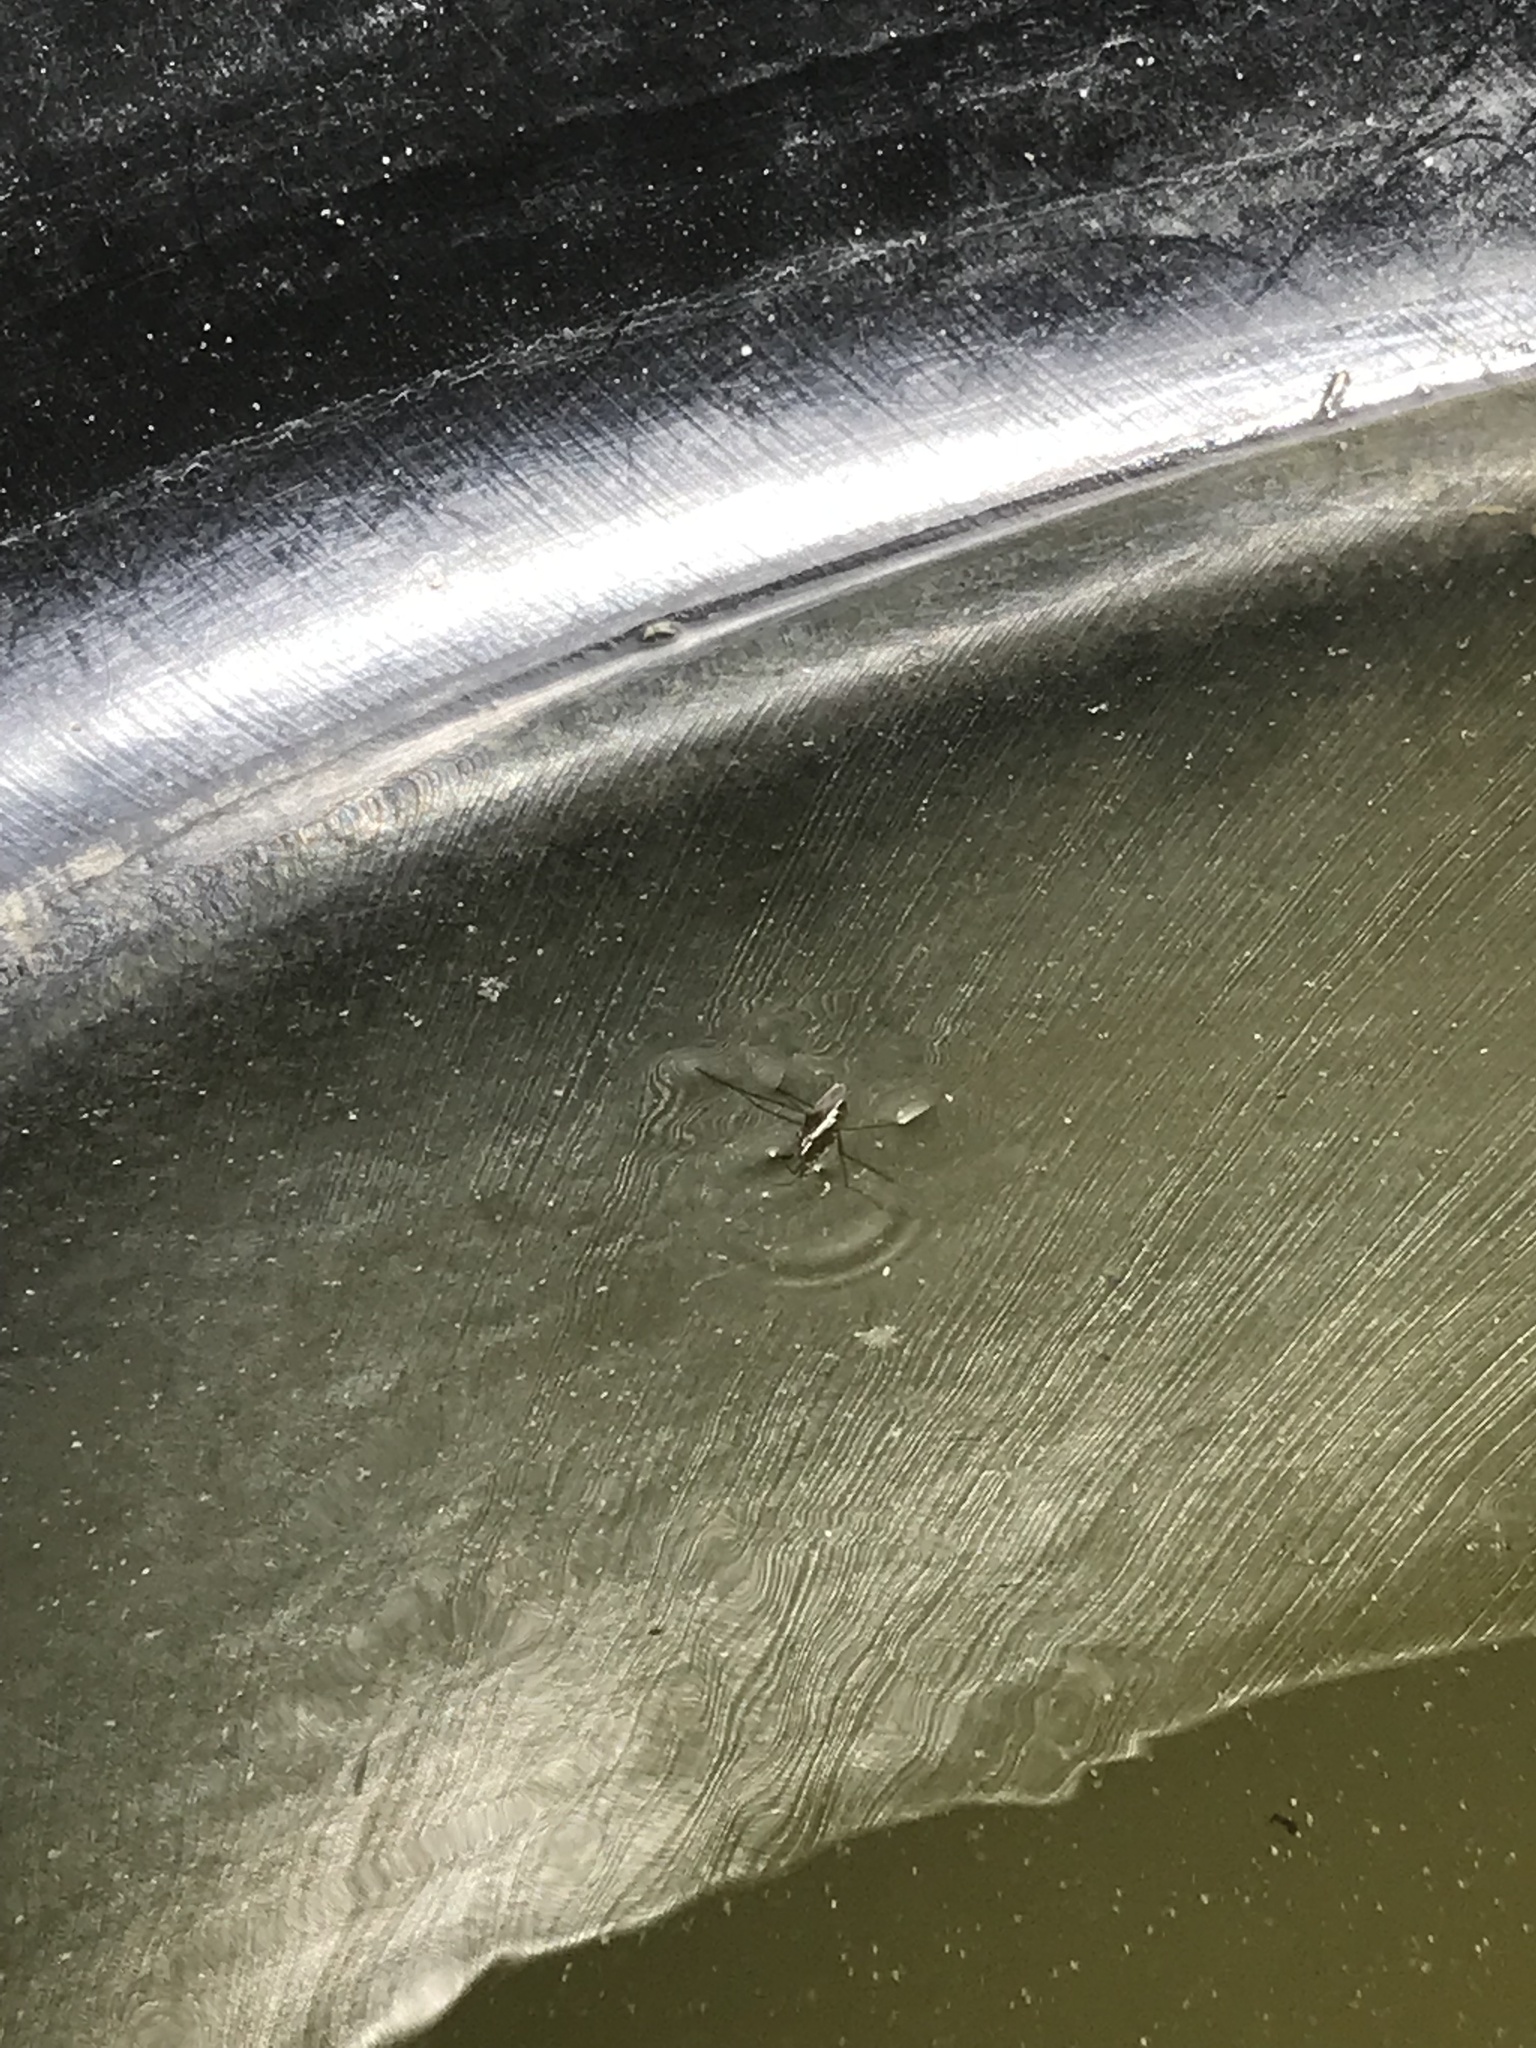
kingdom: Animalia
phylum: Arthropoda
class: Insecta
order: Hemiptera
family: Gerridae
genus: Gerris
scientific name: Gerris
